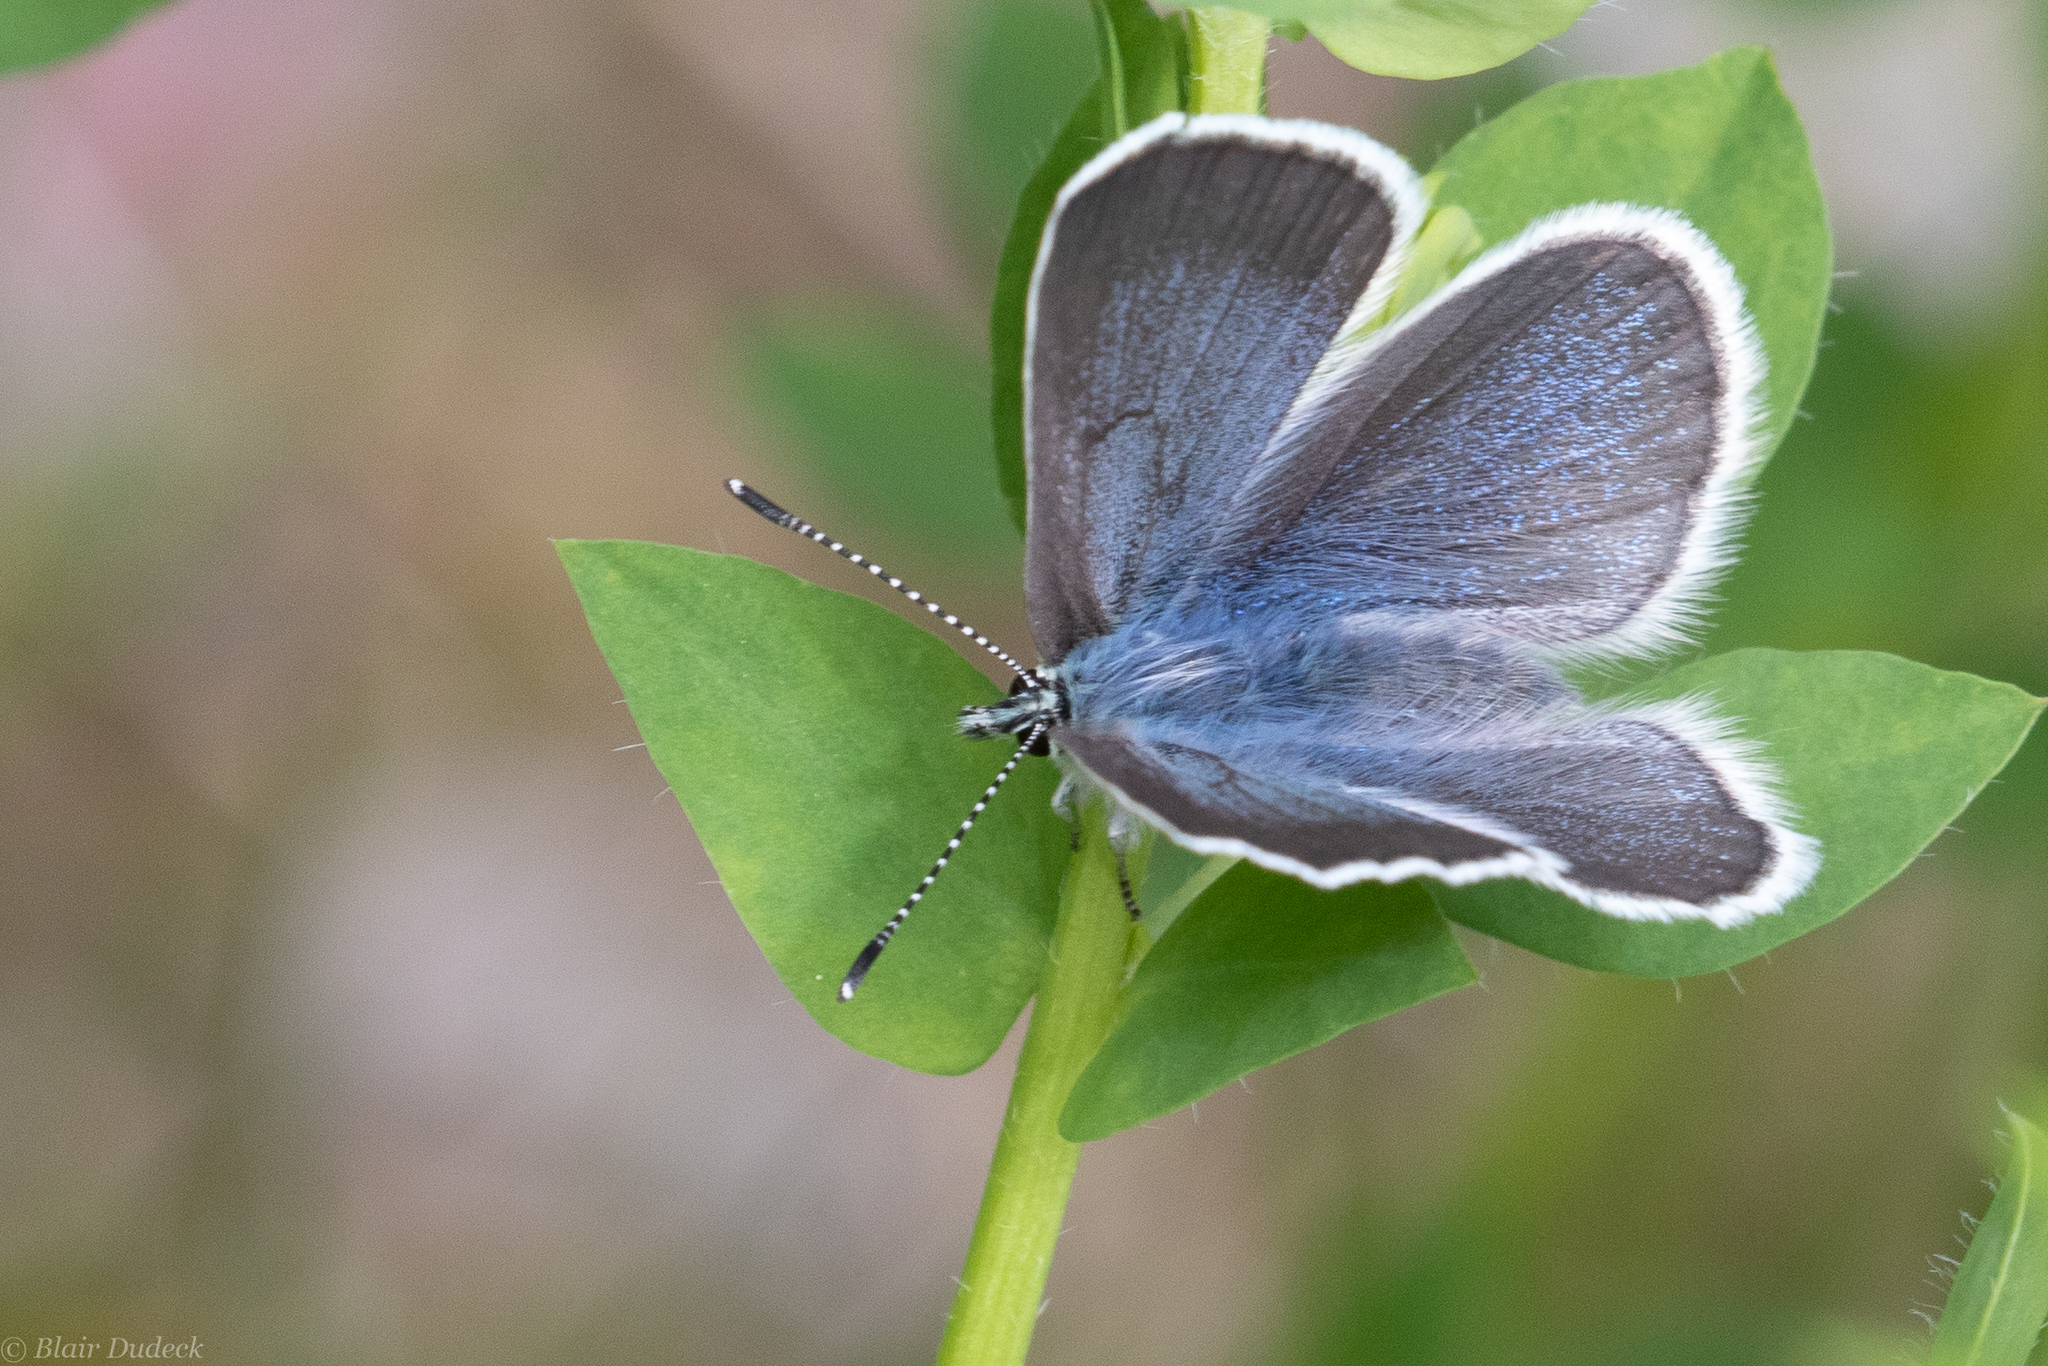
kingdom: Animalia
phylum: Arthropoda
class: Insecta
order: Lepidoptera
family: Lycaenidae
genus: Glaucopsyche
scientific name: Glaucopsyche lygdamus
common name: Silvery blue
